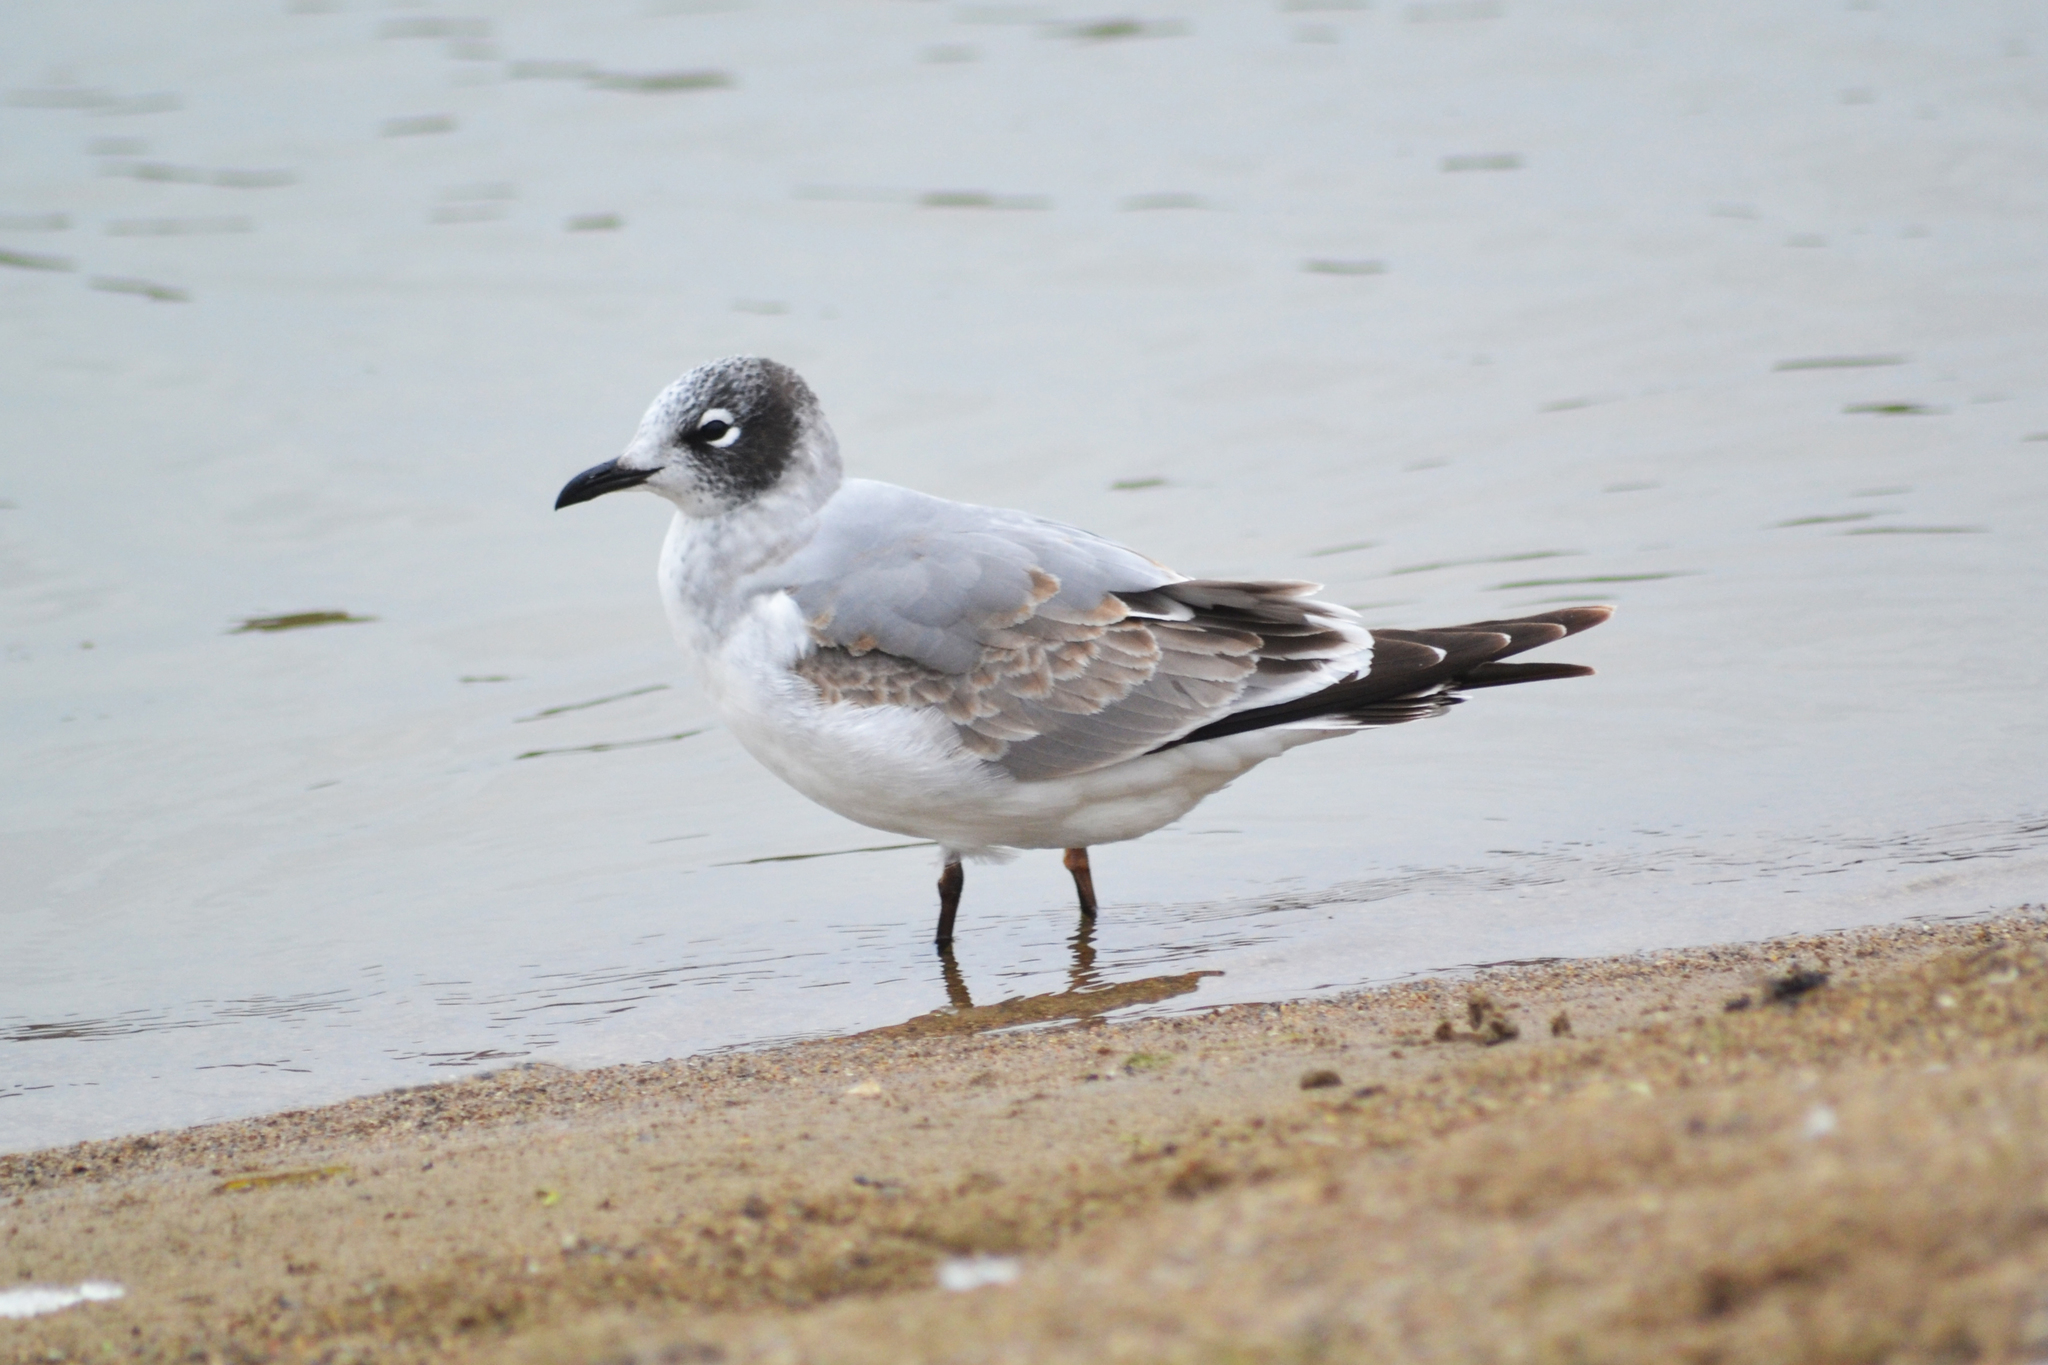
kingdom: Animalia
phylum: Chordata
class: Aves
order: Charadriiformes
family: Laridae
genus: Leucophaeus
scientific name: Leucophaeus pipixcan
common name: Franklin's gull
